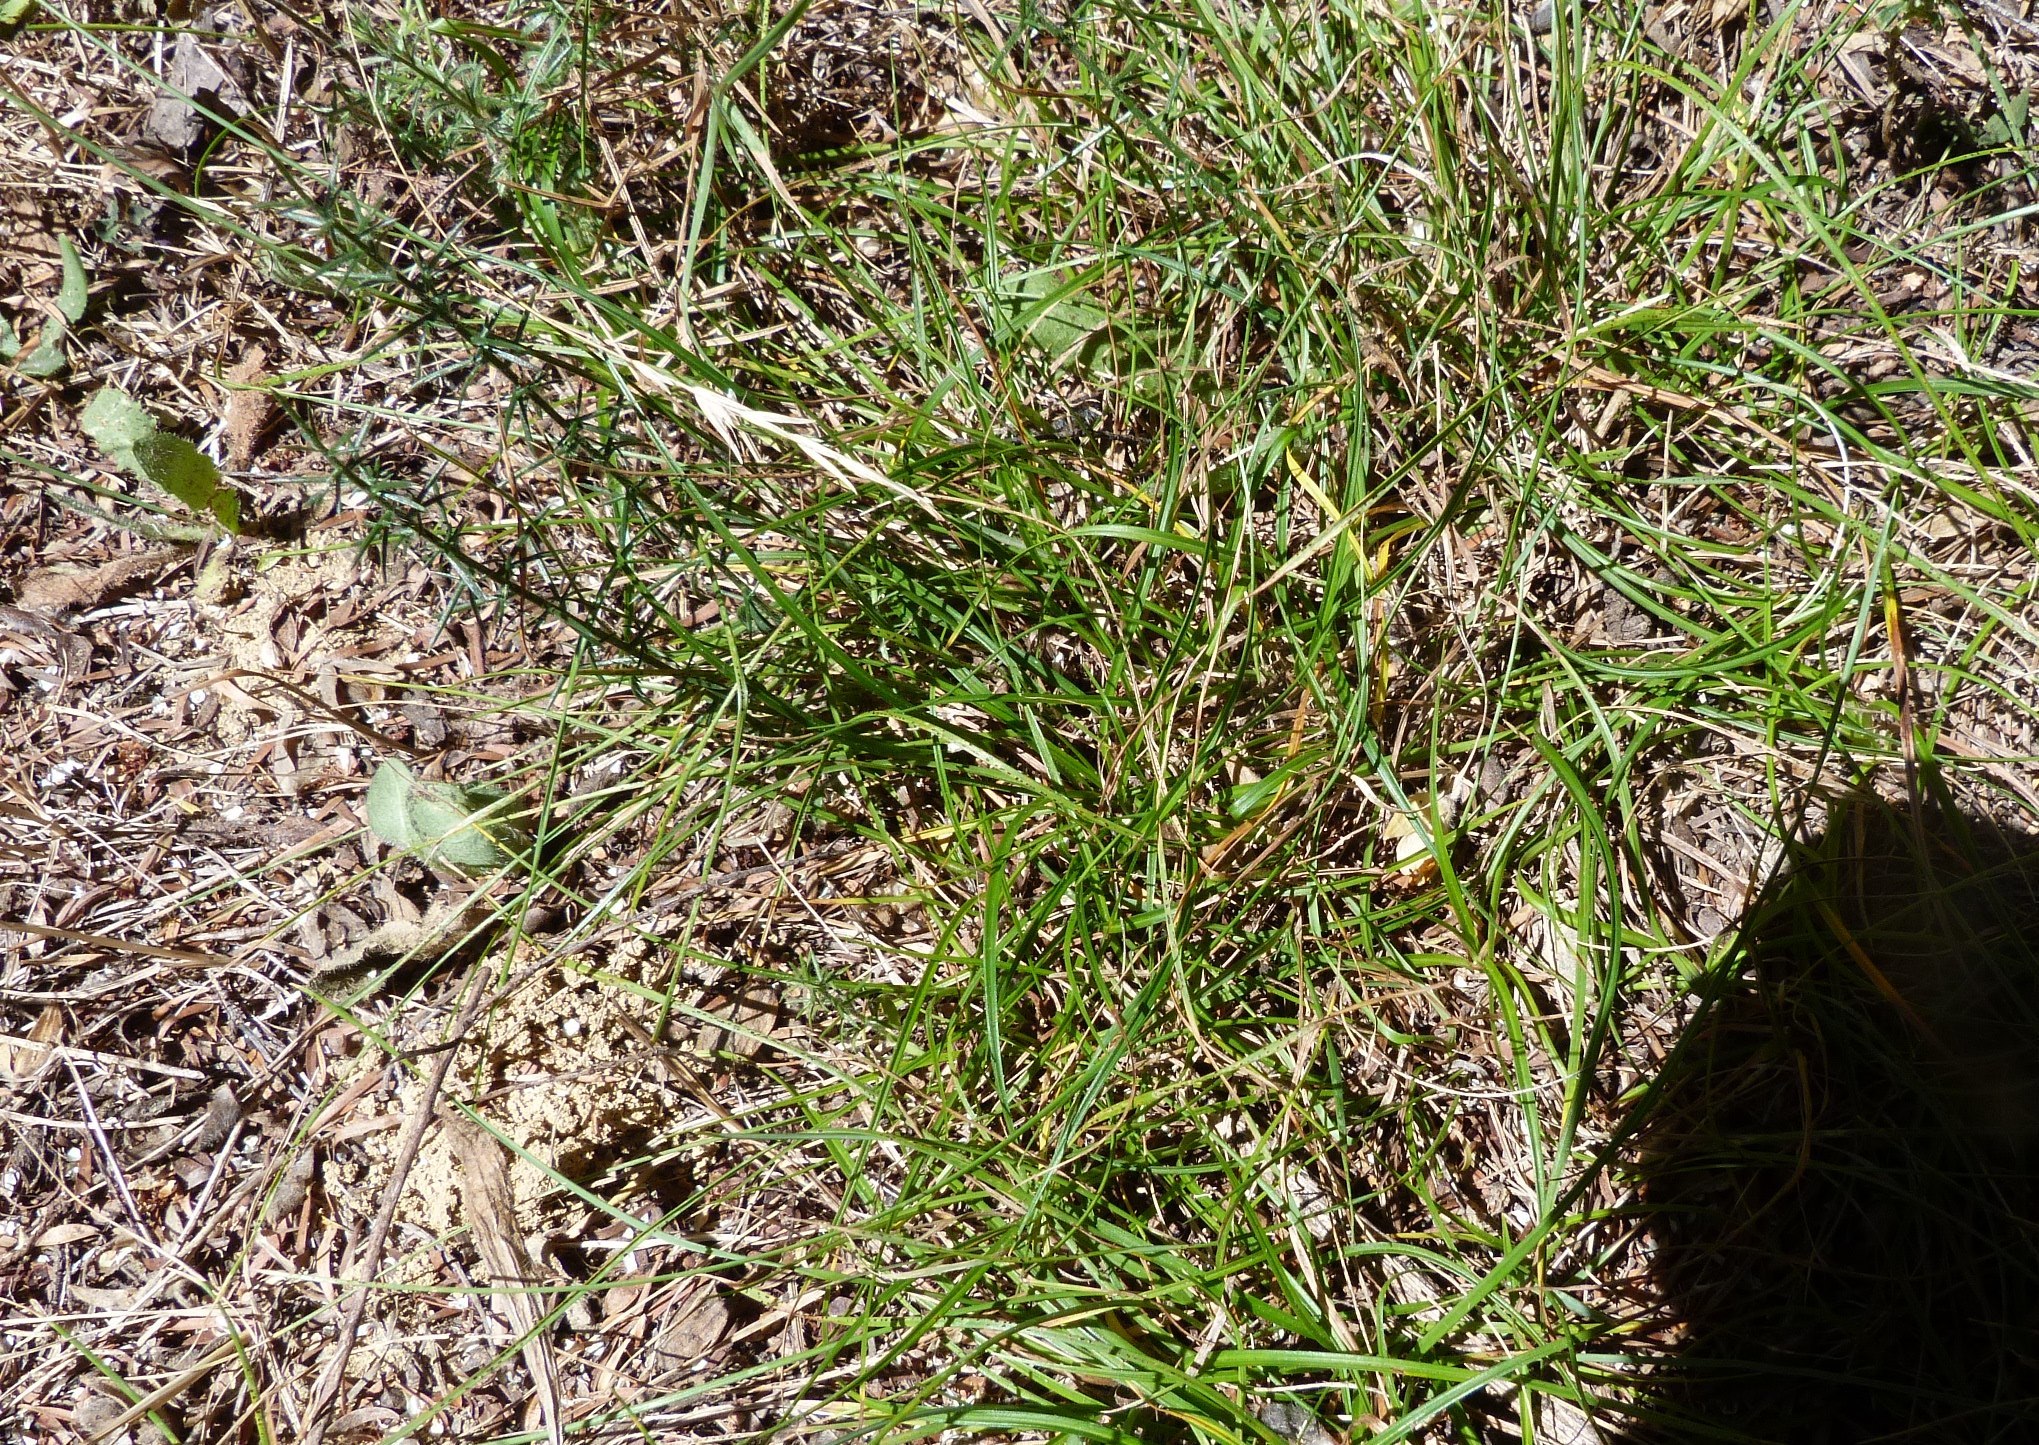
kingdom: Plantae
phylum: Tracheophyta
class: Liliopsida
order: Poales
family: Cyperaceae
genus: Carex
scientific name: Carex breviculmis
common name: Asian shortstem sedge
